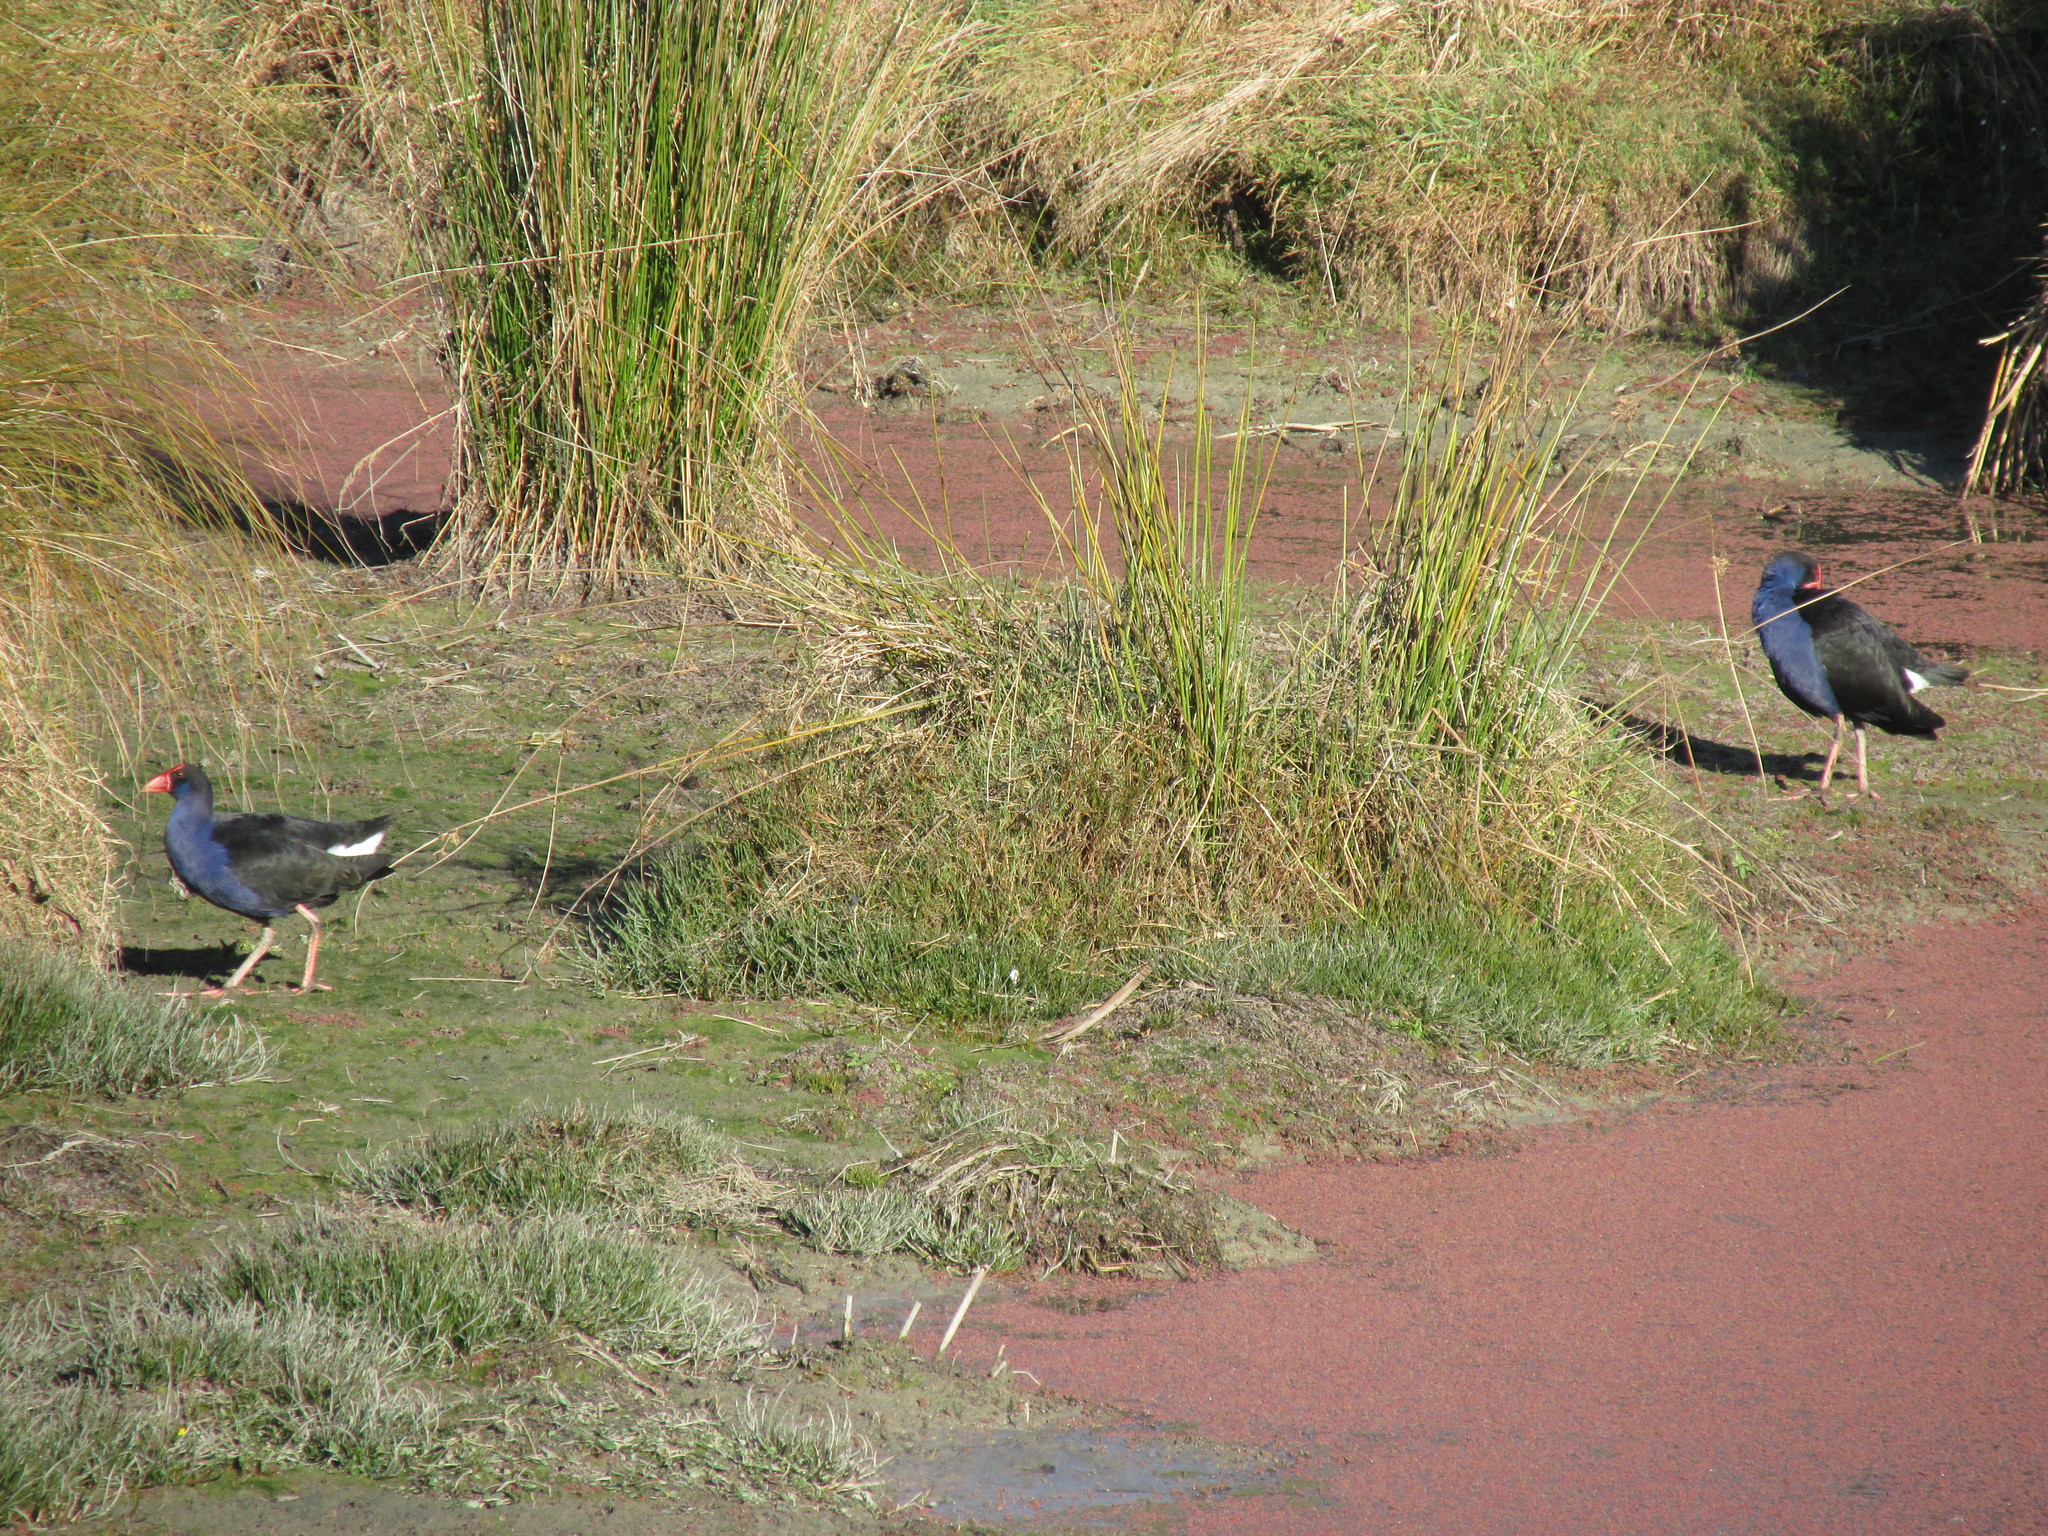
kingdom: Animalia
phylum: Chordata
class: Aves
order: Gruiformes
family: Rallidae
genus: Porphyrio
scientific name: Porphyrio melanotus
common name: Australasian swamphen
